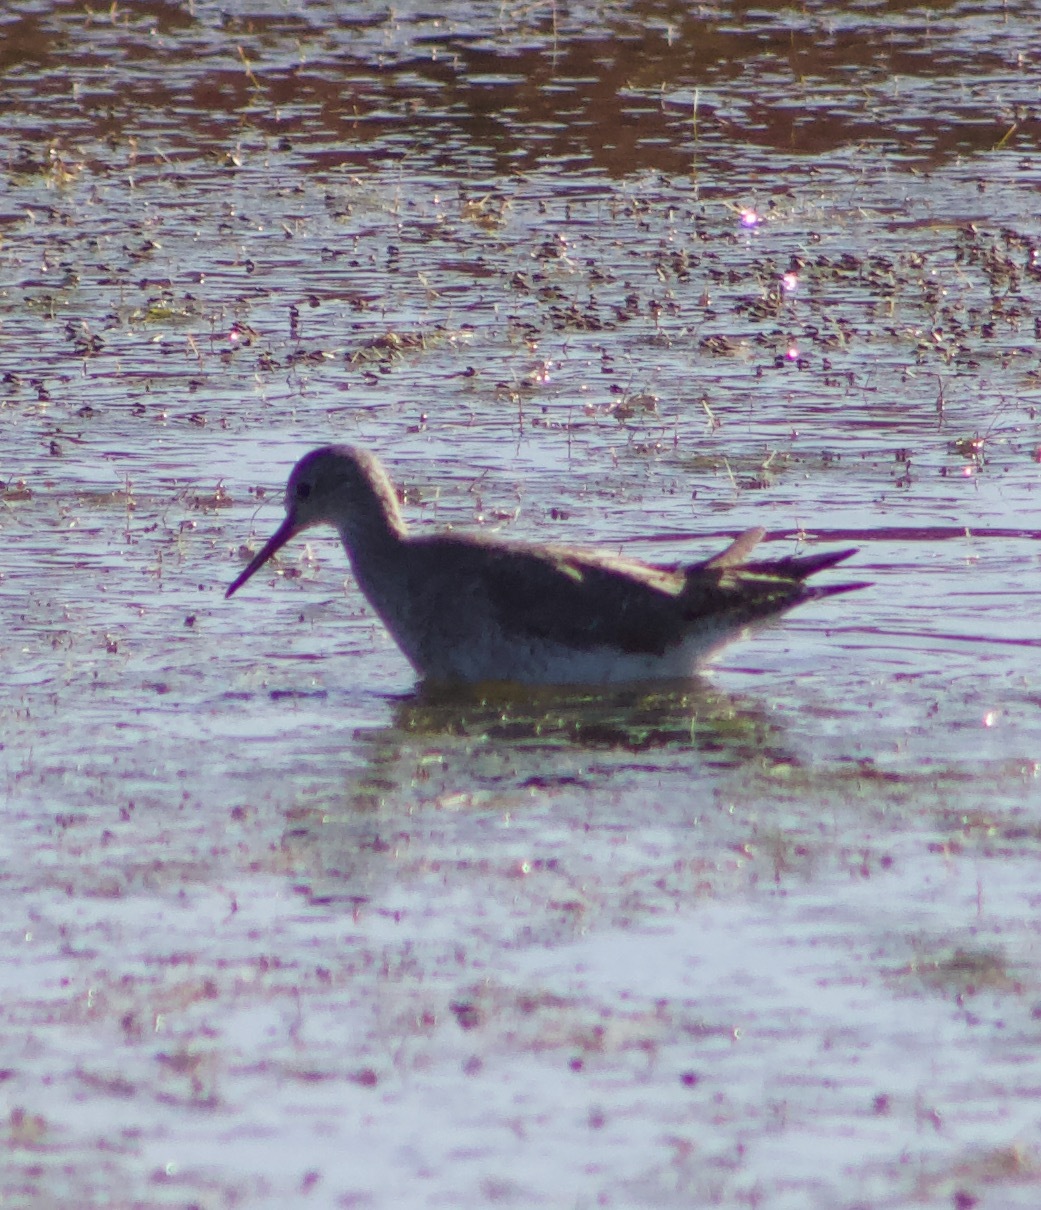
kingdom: Animalia
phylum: Chordata
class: Aves
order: Charadriiformes
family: Scolopacidae
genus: Tringa
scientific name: Tringa flavipes
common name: Lesser yellowlegs
